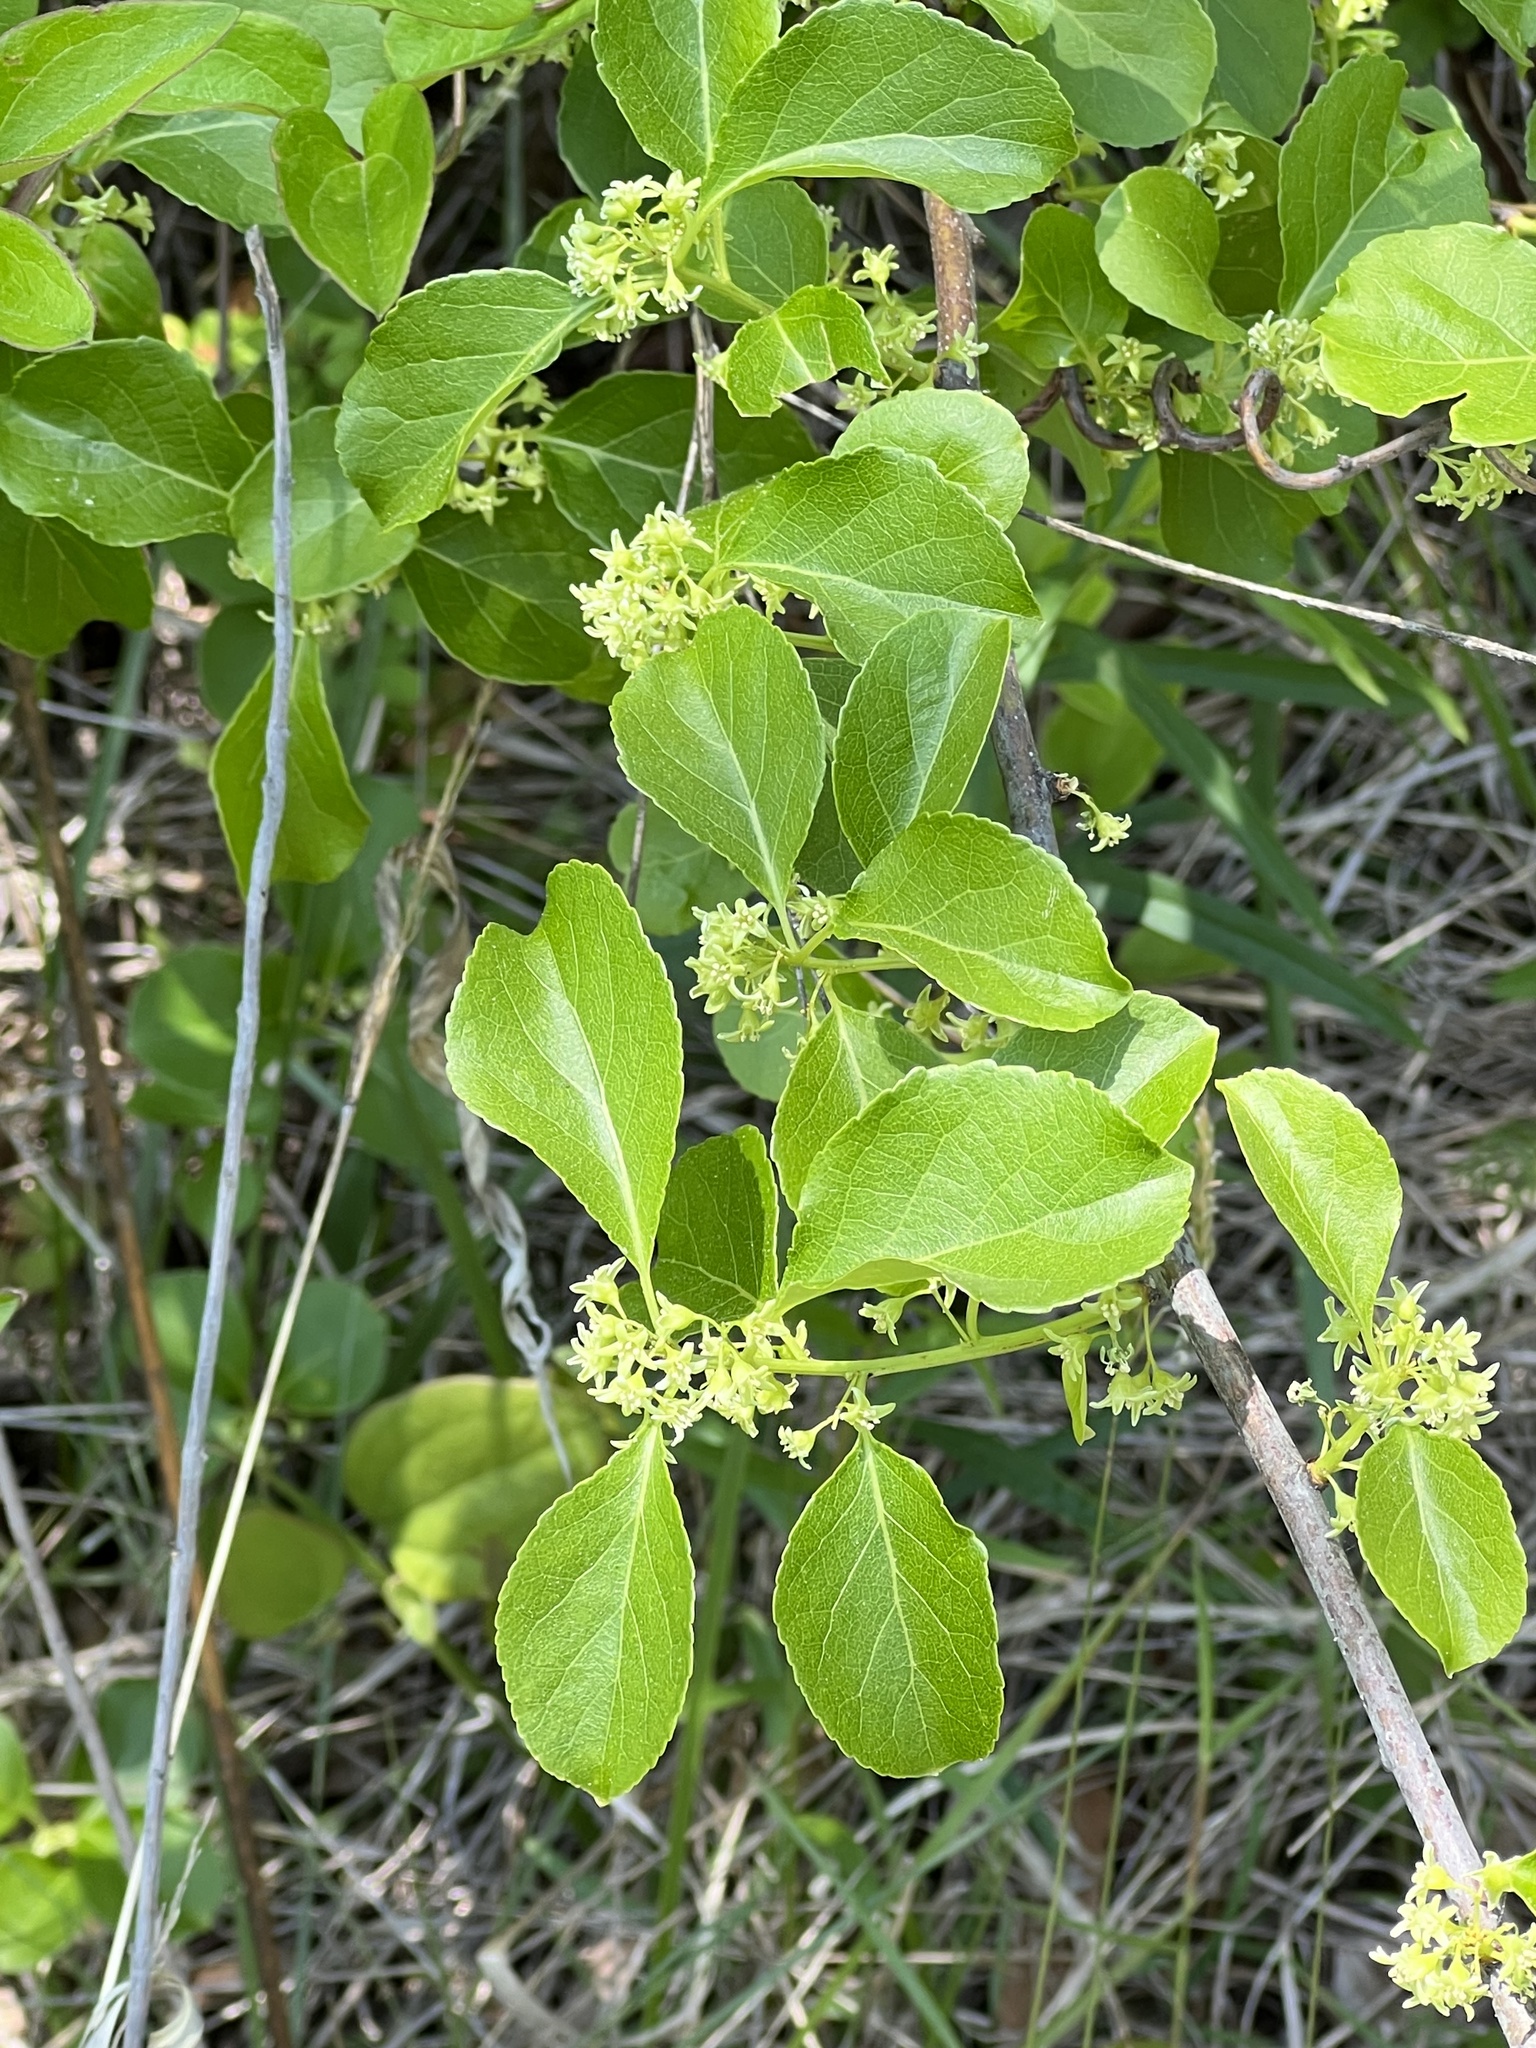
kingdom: Plantae
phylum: Tracheophyta
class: Magnoliopsida
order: Celastrales
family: Celastraceae
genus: Celastrus
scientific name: Celastrus orbiculatus
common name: Oriental bittersweet
